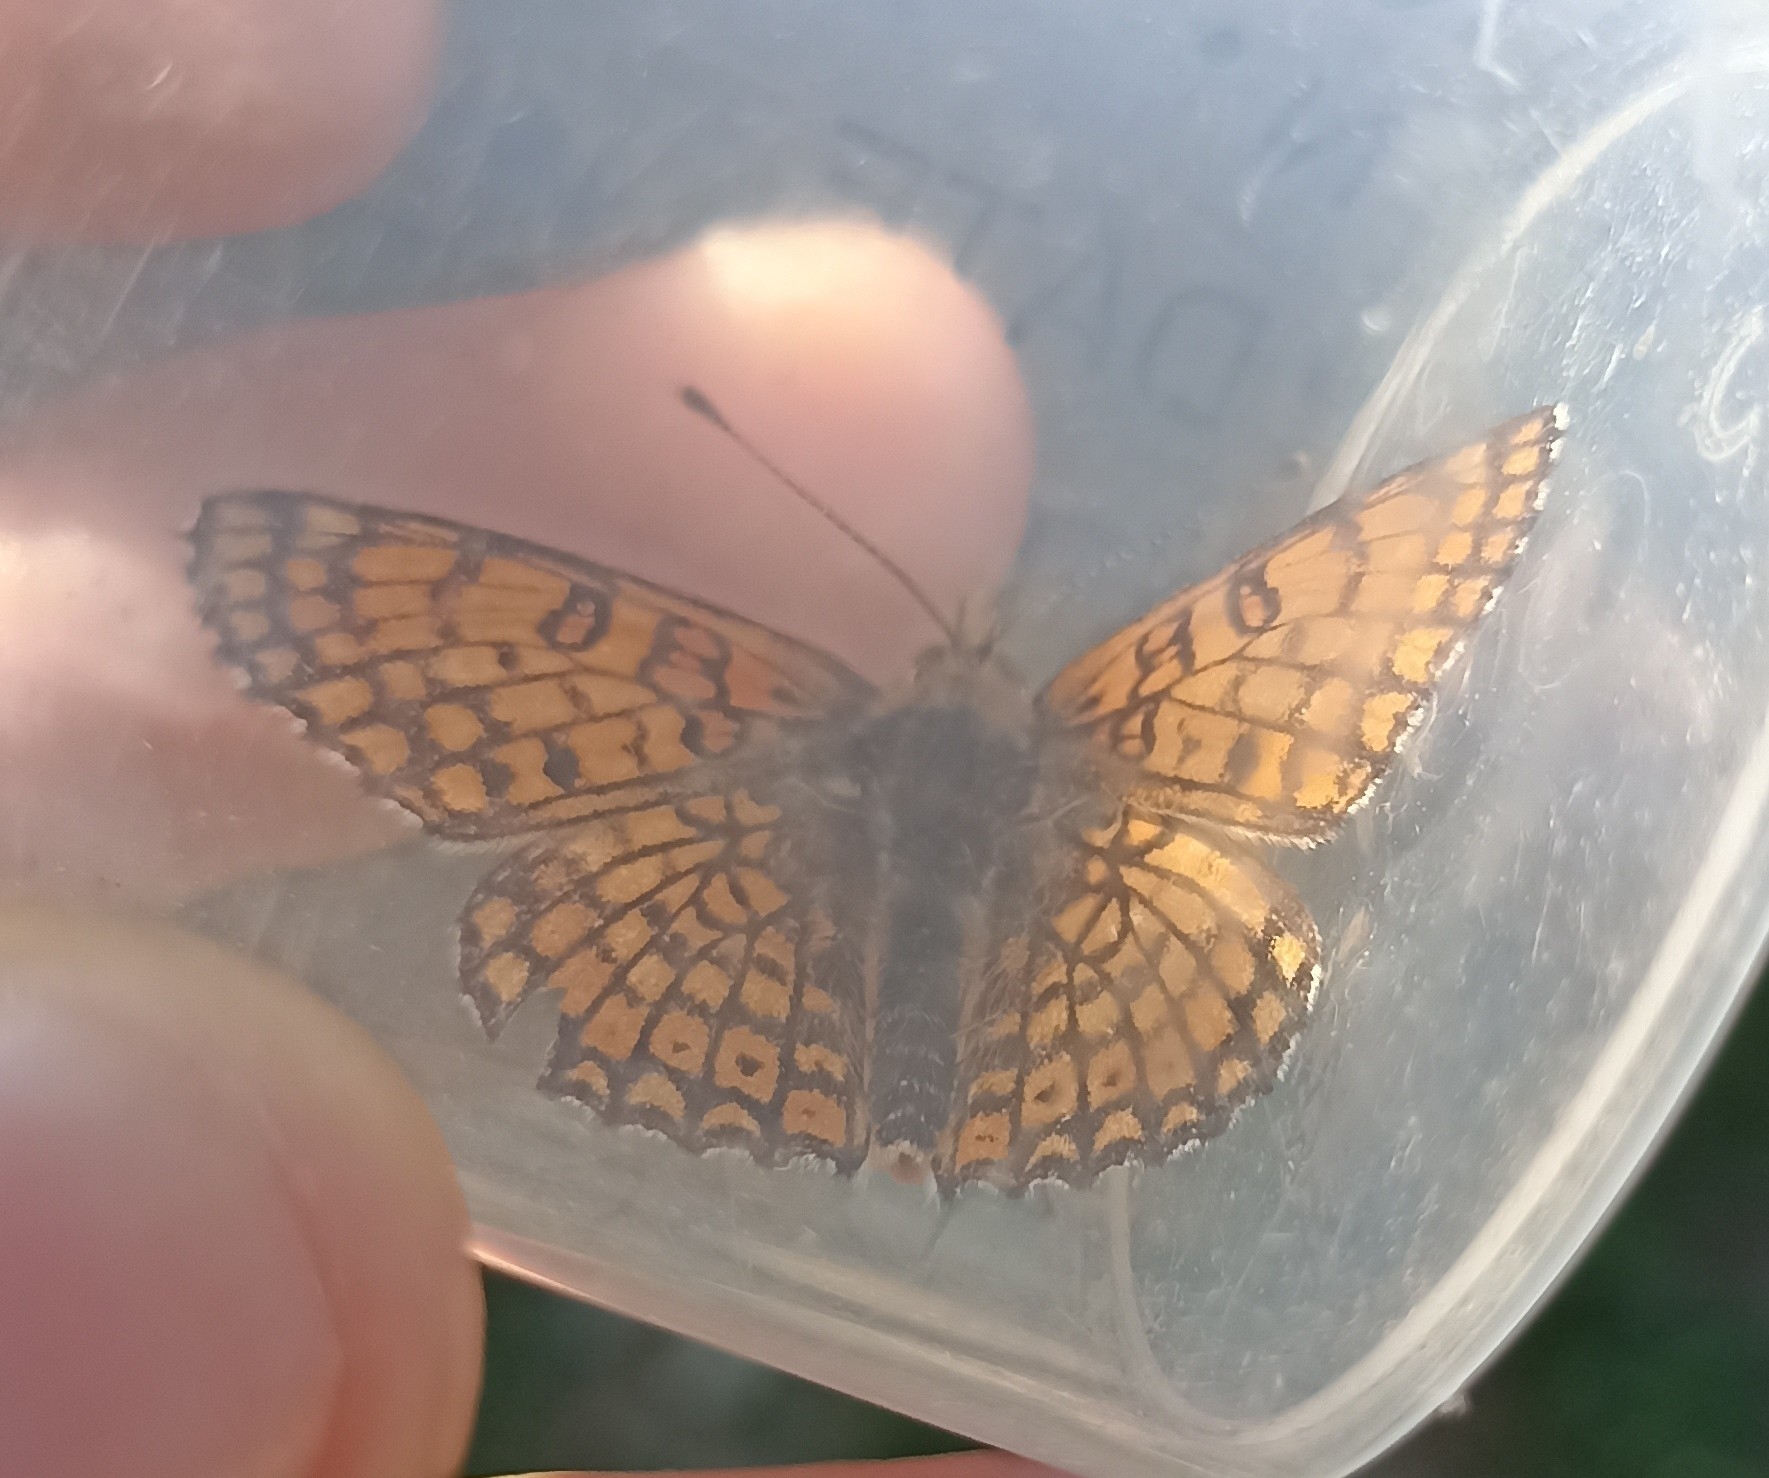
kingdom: Animalia
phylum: Arthropoda
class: Insecta
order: Lepidoptera
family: Nymphalidae
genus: Melitaea
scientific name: Melitaea cinxia
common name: Glanville fritillary
